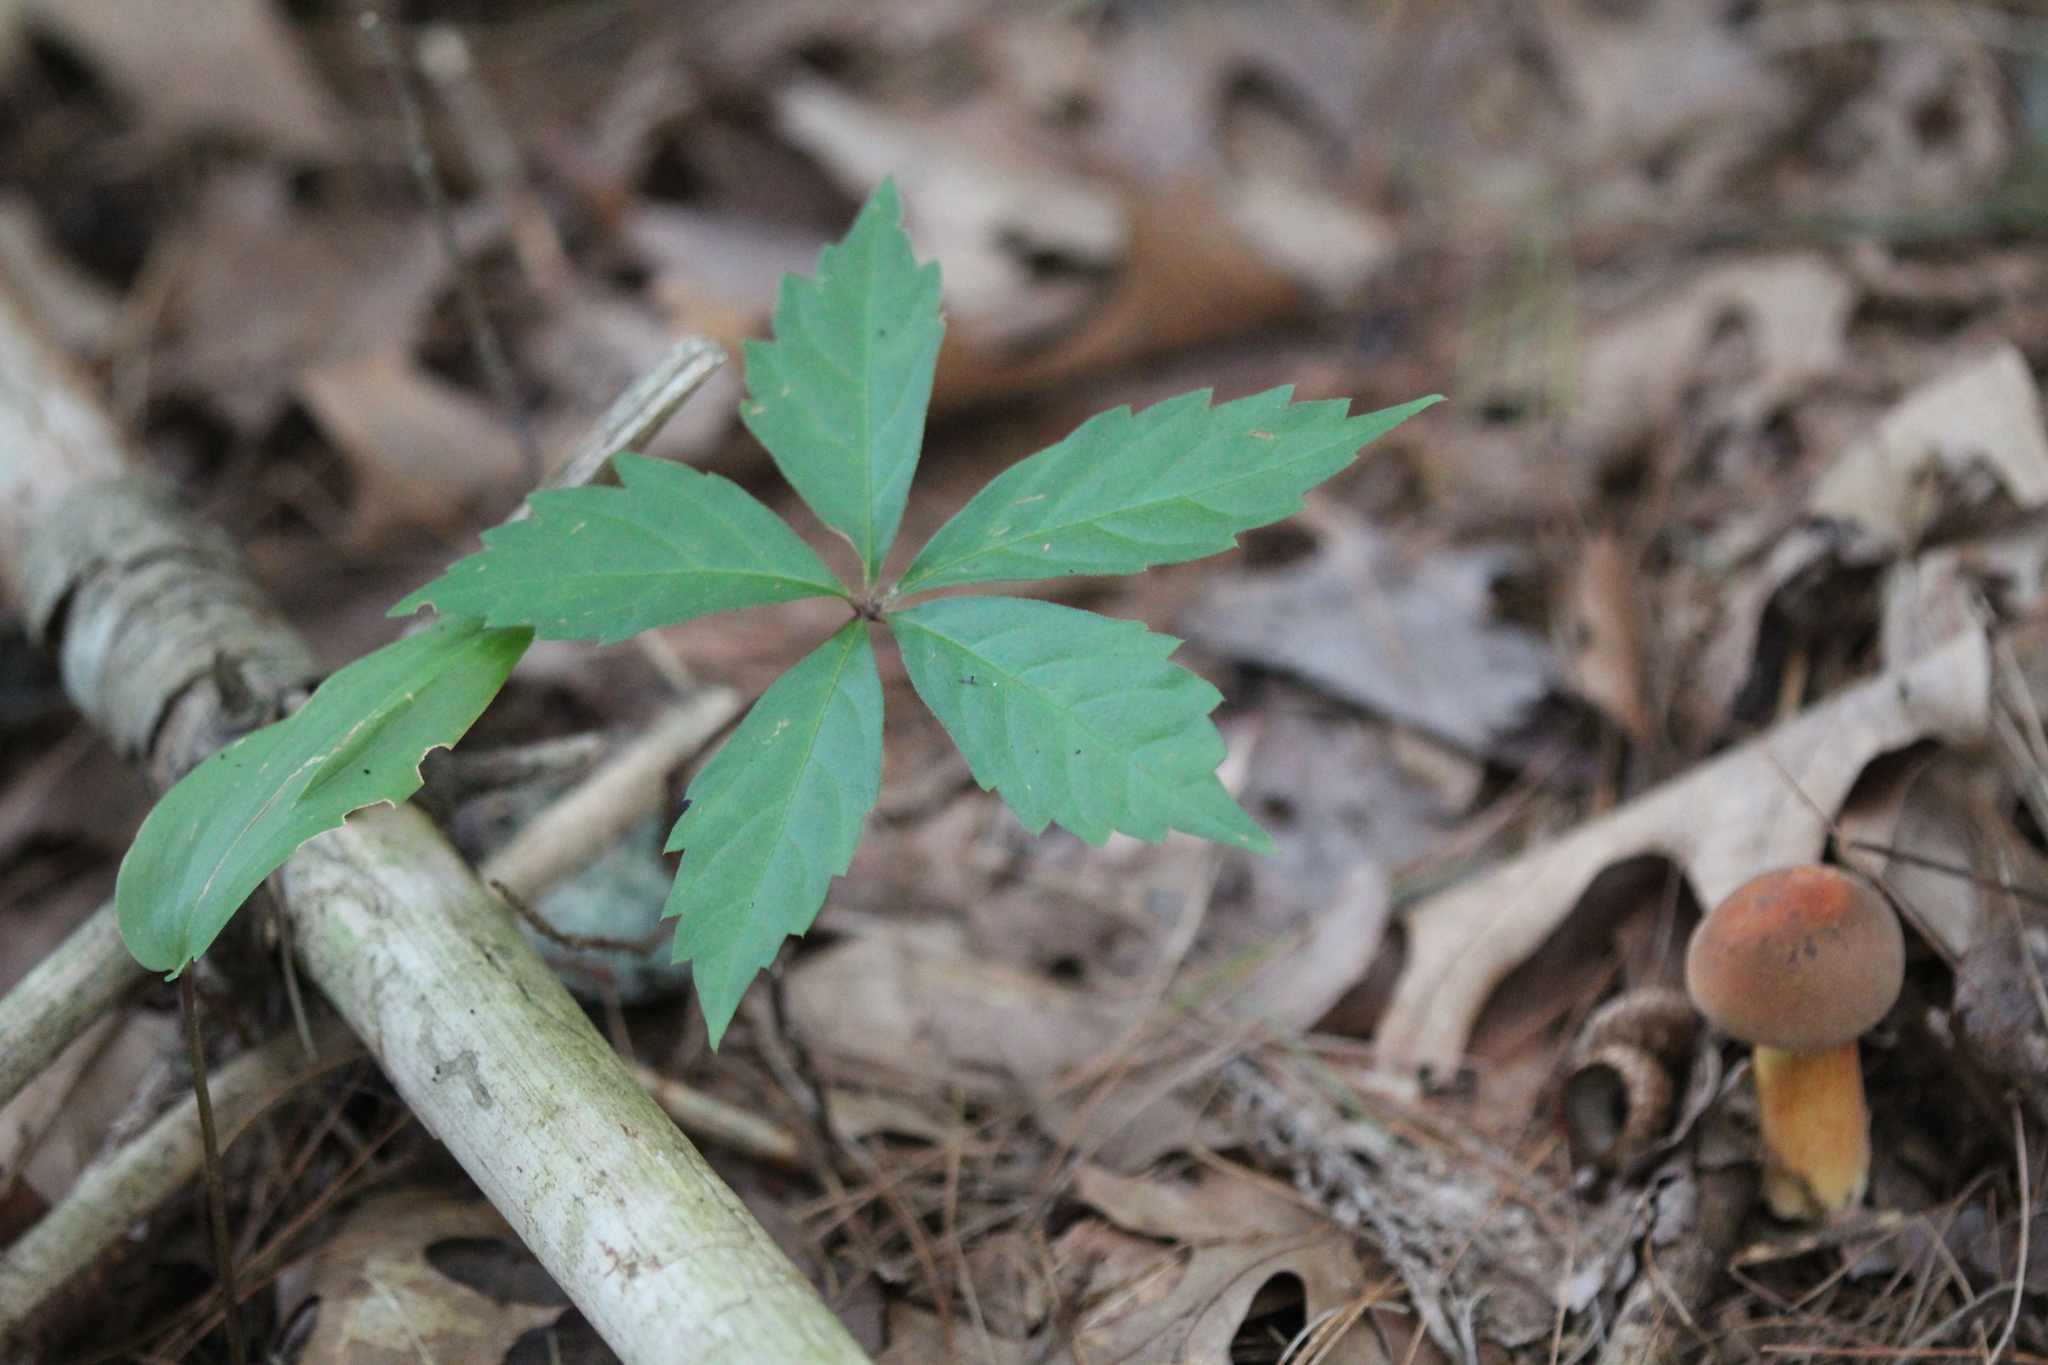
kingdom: Plantae
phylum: Tracheophyta
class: Magnoliopsida
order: Vitales
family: Vitaceae
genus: Parthenocissus
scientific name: Parthenocissus quinquefolia
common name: Virginia-creeper
